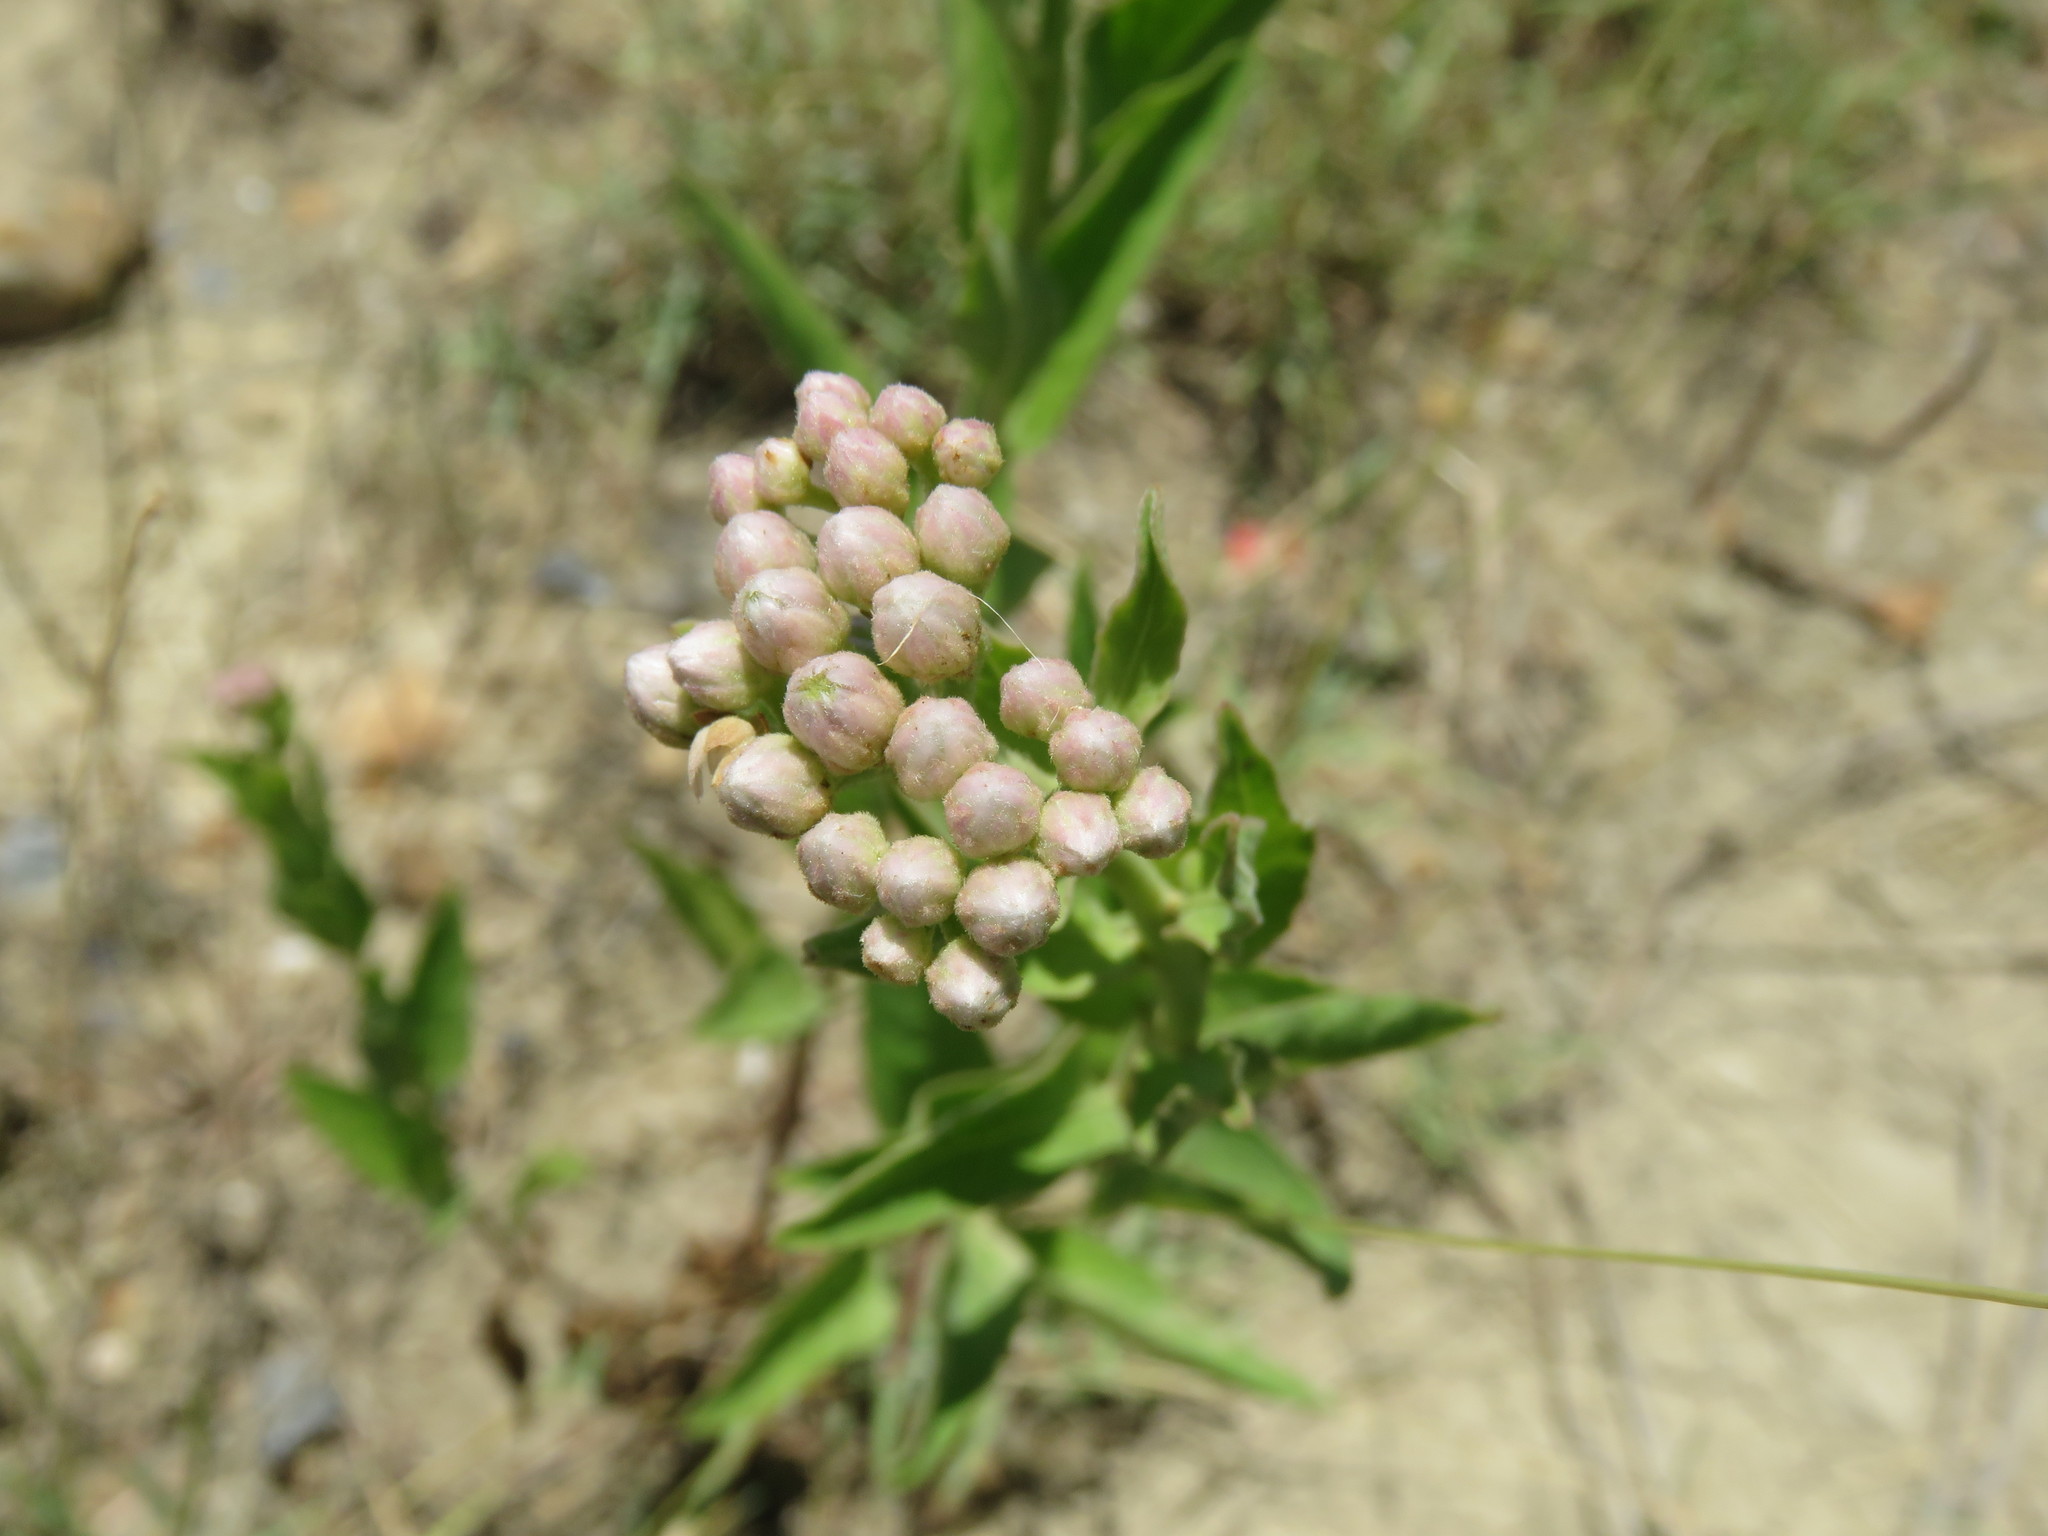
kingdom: Plantae
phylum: Tracheophyta
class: Magnoliopsida
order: Asterales
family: Asteraceae
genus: Pluchea
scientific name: Pluchea odorata
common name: Saltmarsh fleabane
